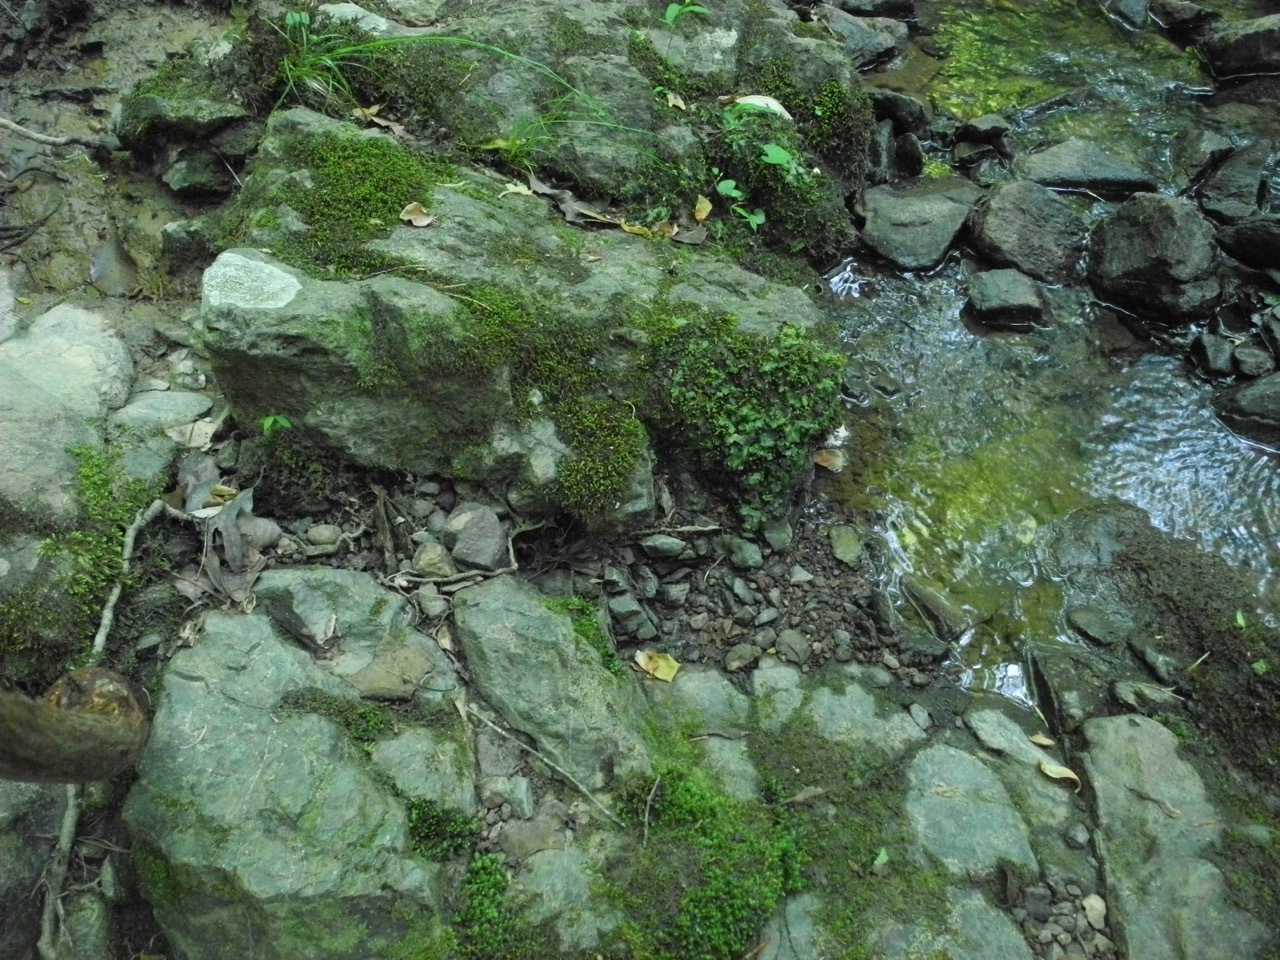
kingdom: Plantae
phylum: Marchantiophyta
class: Marchantiopsida
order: Marchantiales
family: Conocephalaceae
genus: Conocephalum
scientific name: Conocephalum salebrosum
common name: Cat-tongue liverwort
